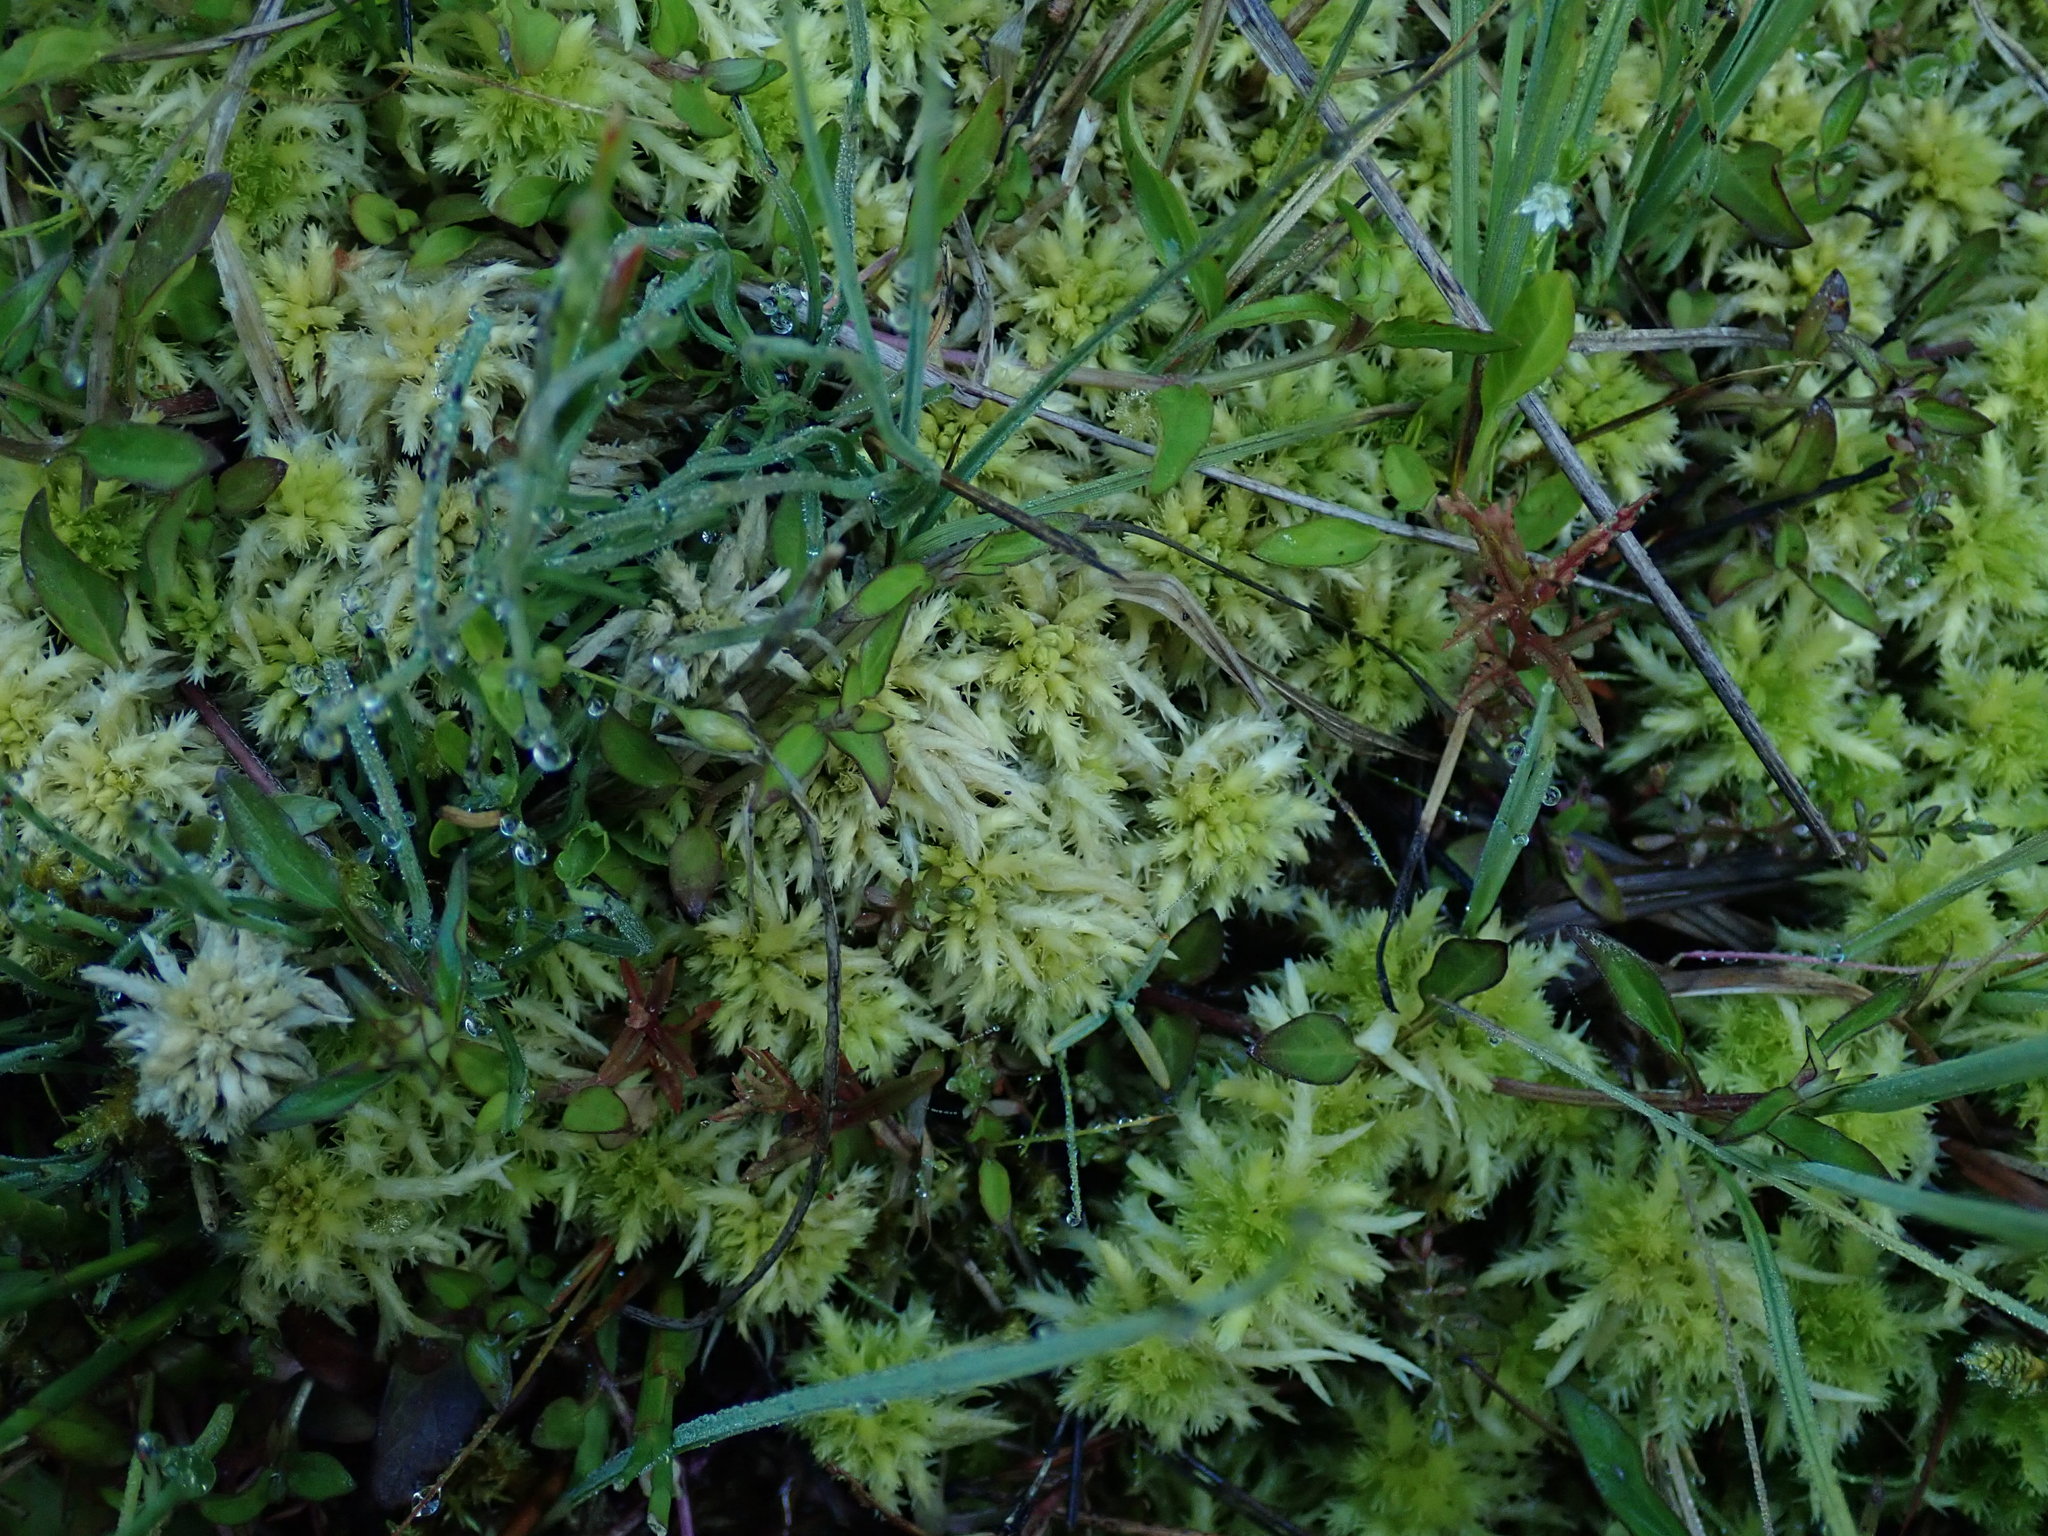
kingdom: Plantae
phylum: Bryophyta
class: Sphagnopsida
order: Sphagnales
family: Sphagnaceae
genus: Sphagnum
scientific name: Sphagnum squarrosum
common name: Shaggy peat moss
